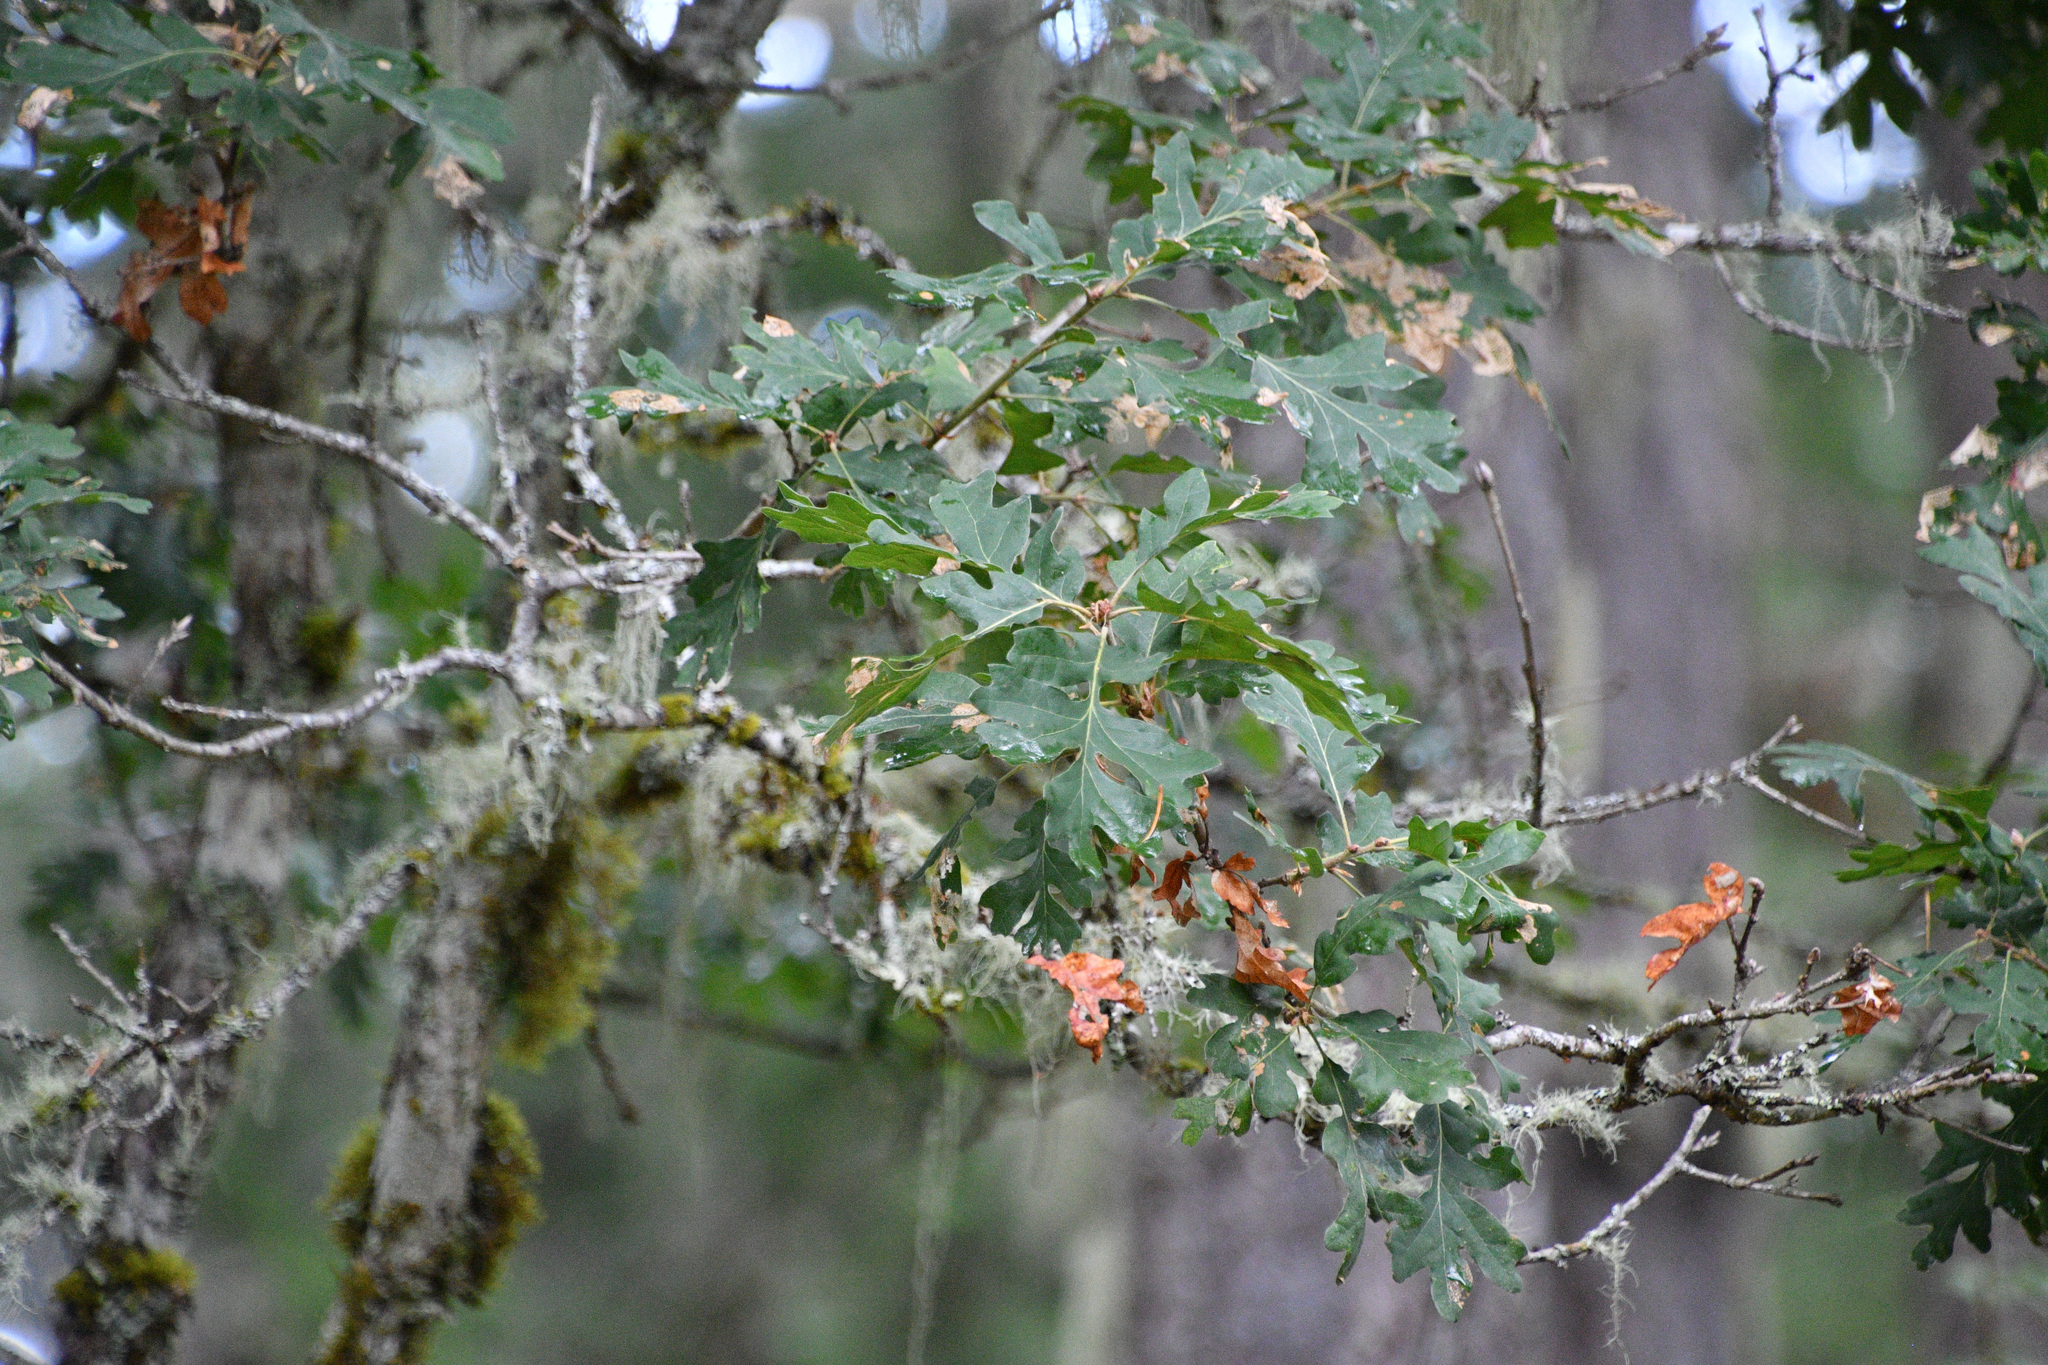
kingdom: Plantae
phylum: Tracheophyta
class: Magnoliopsida
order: Fagales
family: Fagaceae
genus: Quercus
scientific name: Quercus garryana
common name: Garry oak
